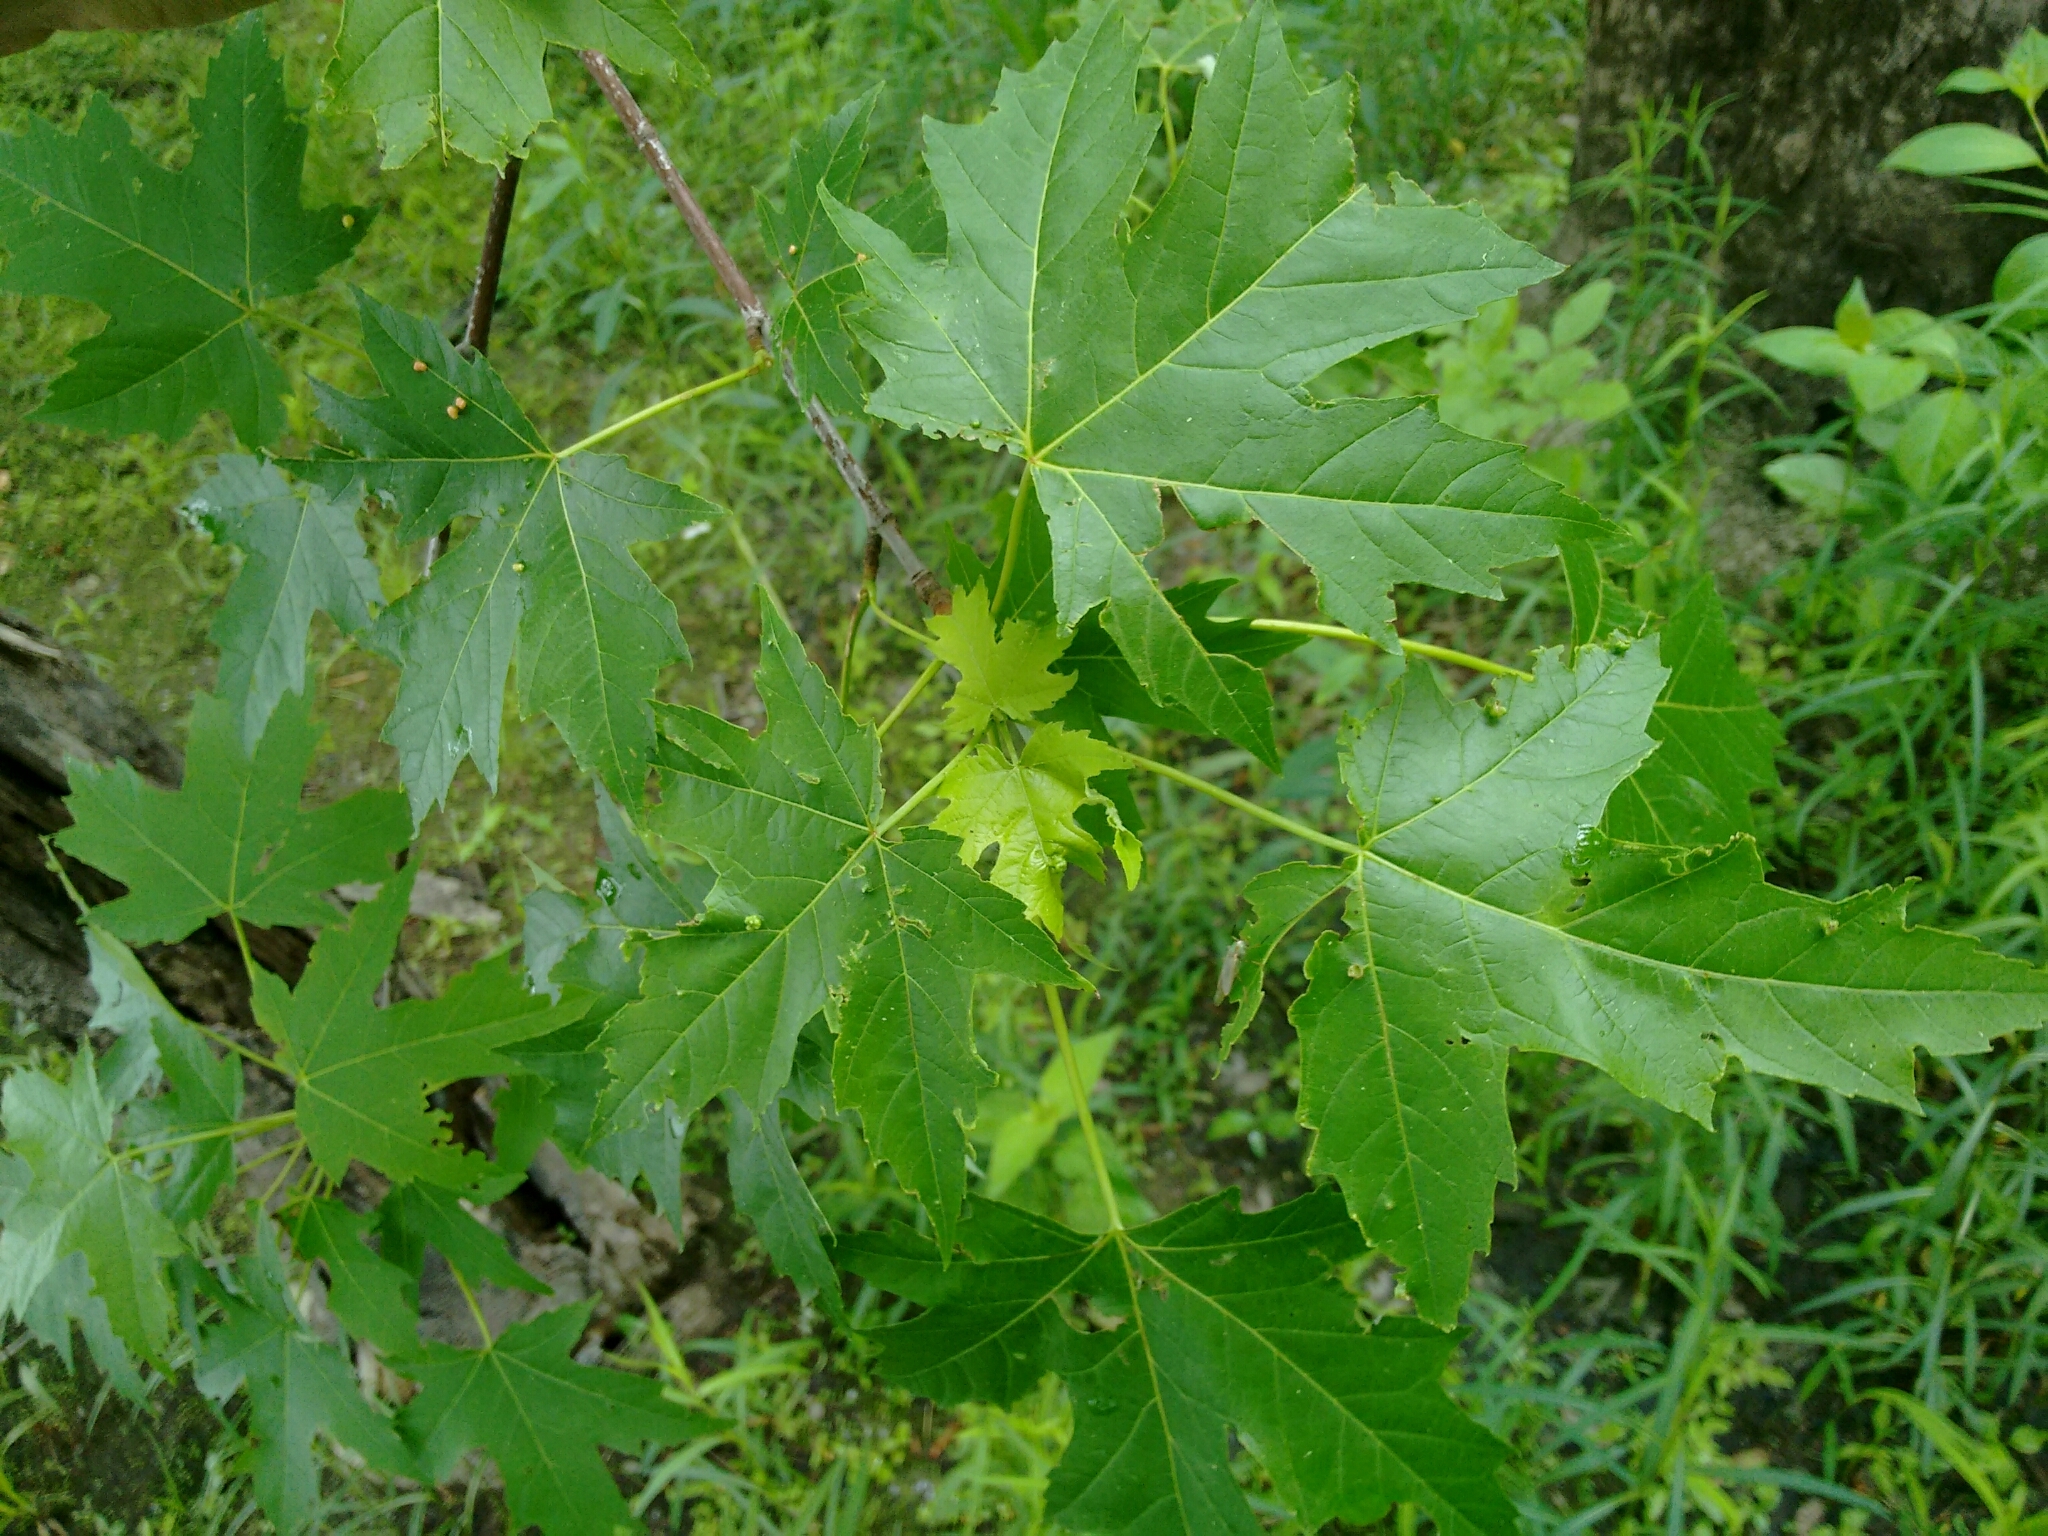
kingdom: Plantae
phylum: Tracheophyta
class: Magnoliopsida
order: Sapindales
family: Sapindaceae
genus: Acer
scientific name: Acer saccharinum
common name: Silver maple
